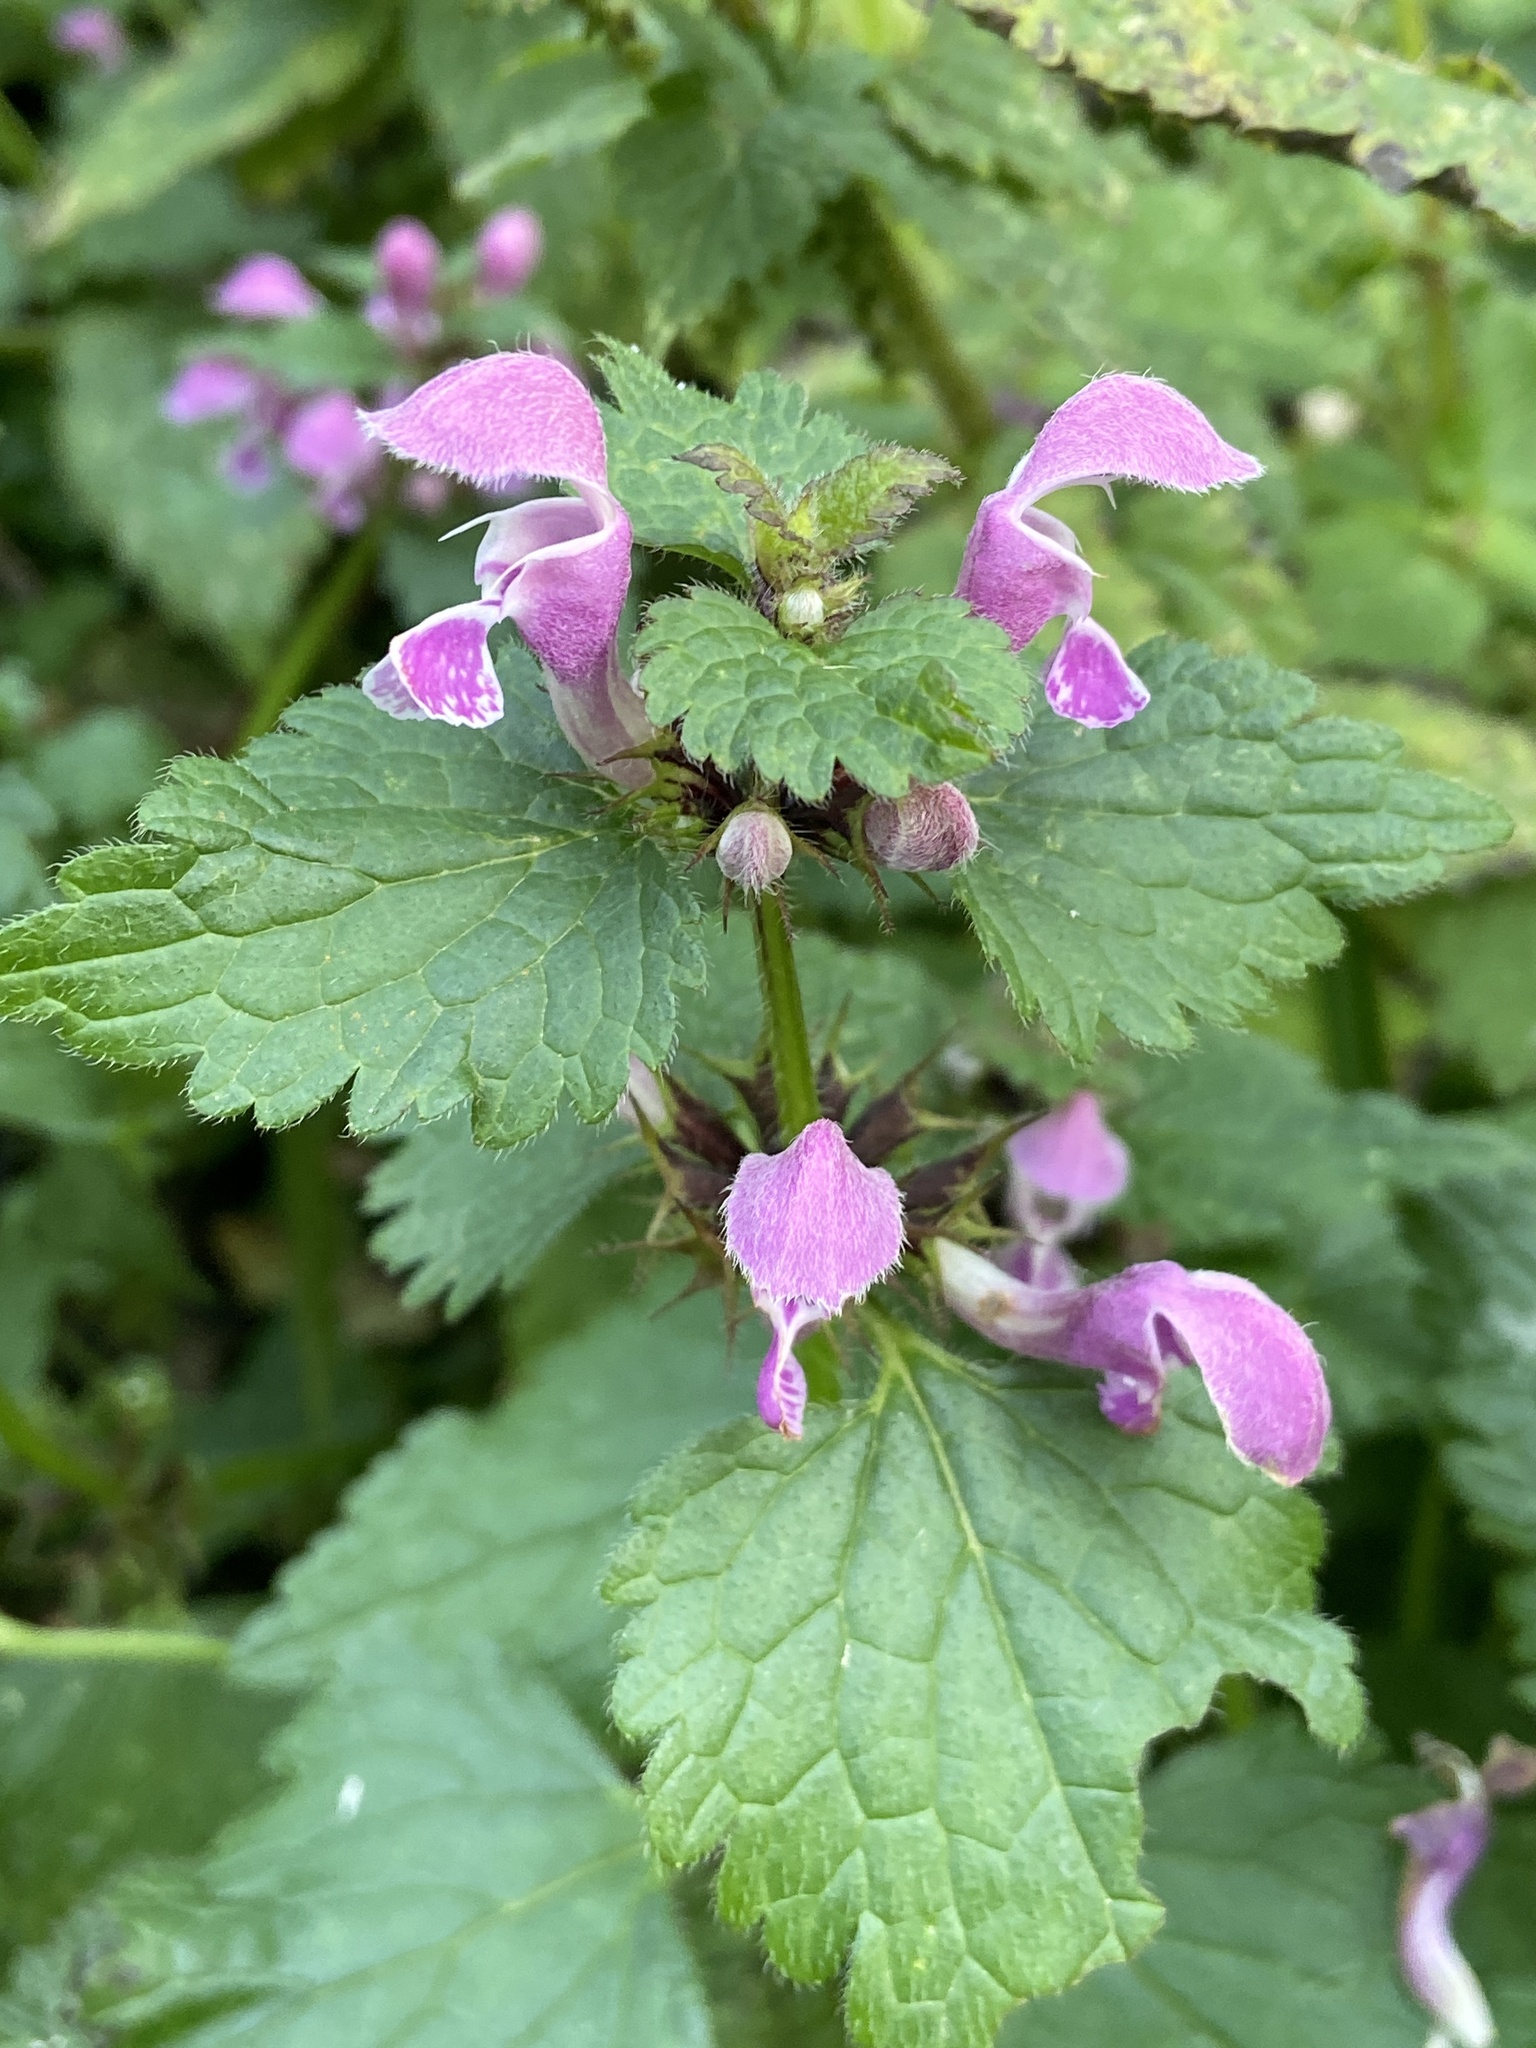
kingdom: Plantae
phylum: Tracheophyta
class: Magnoliopsida
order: Lamiales
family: Lamiaceae
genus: Lamium
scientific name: Lamium maculatum
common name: Spotted dead-nettle
